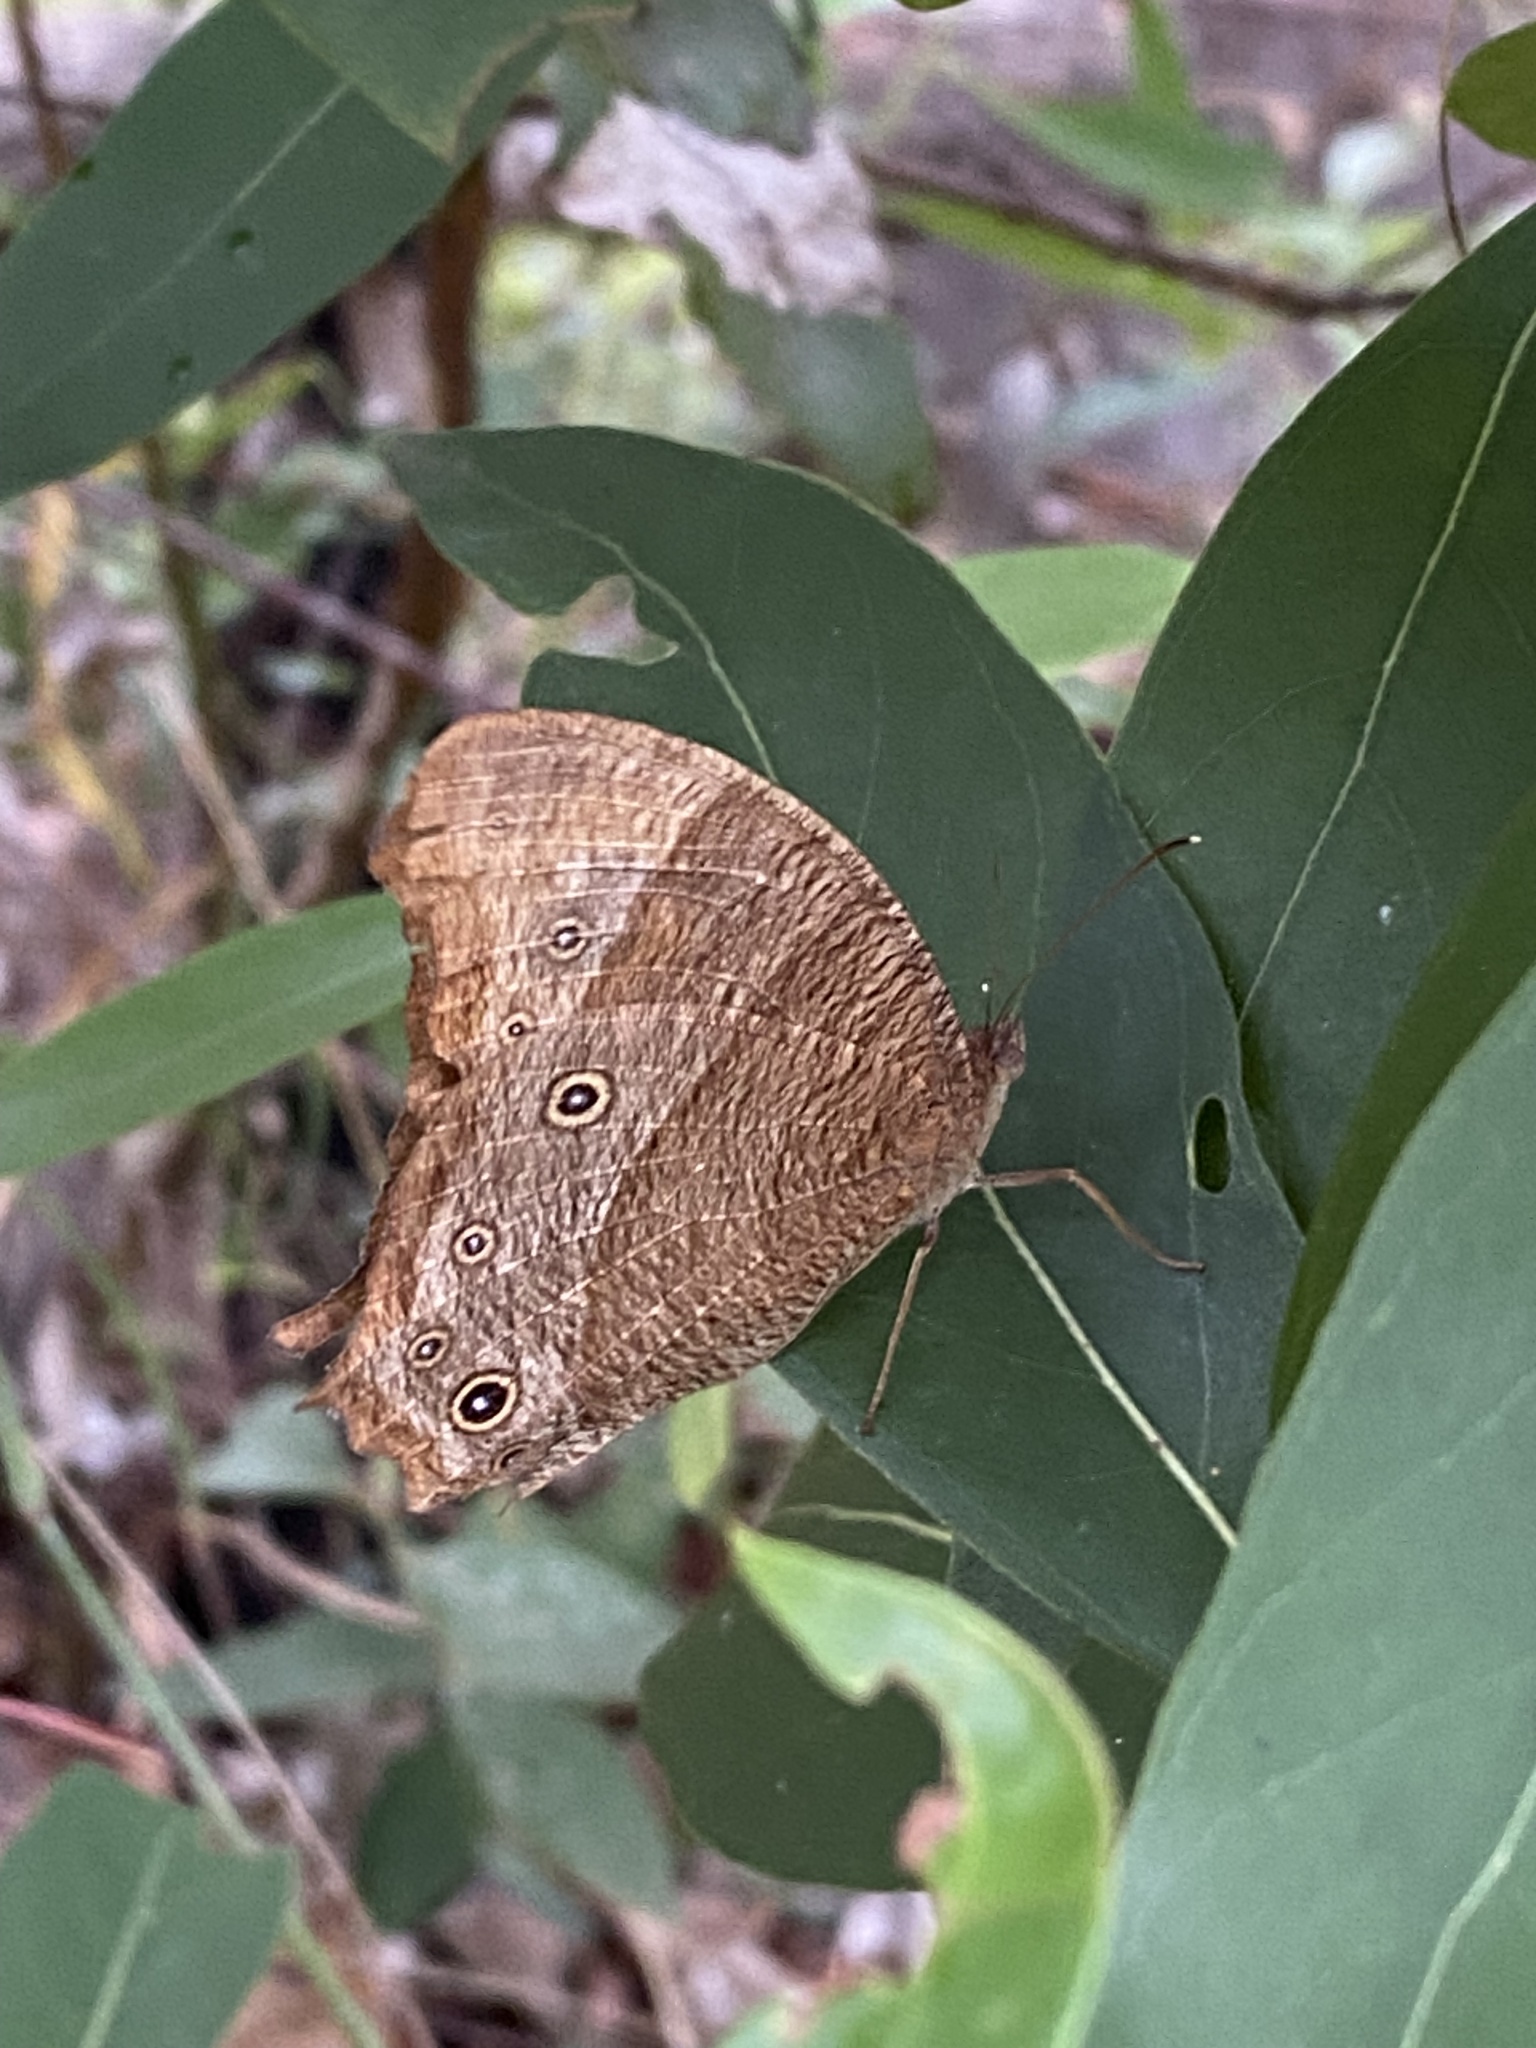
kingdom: Animalia
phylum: Arthropoda
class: Insecta
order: Lepidoptera
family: Nymphalidae
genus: Melanitis
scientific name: Melanitis leda
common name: Twilight brown
